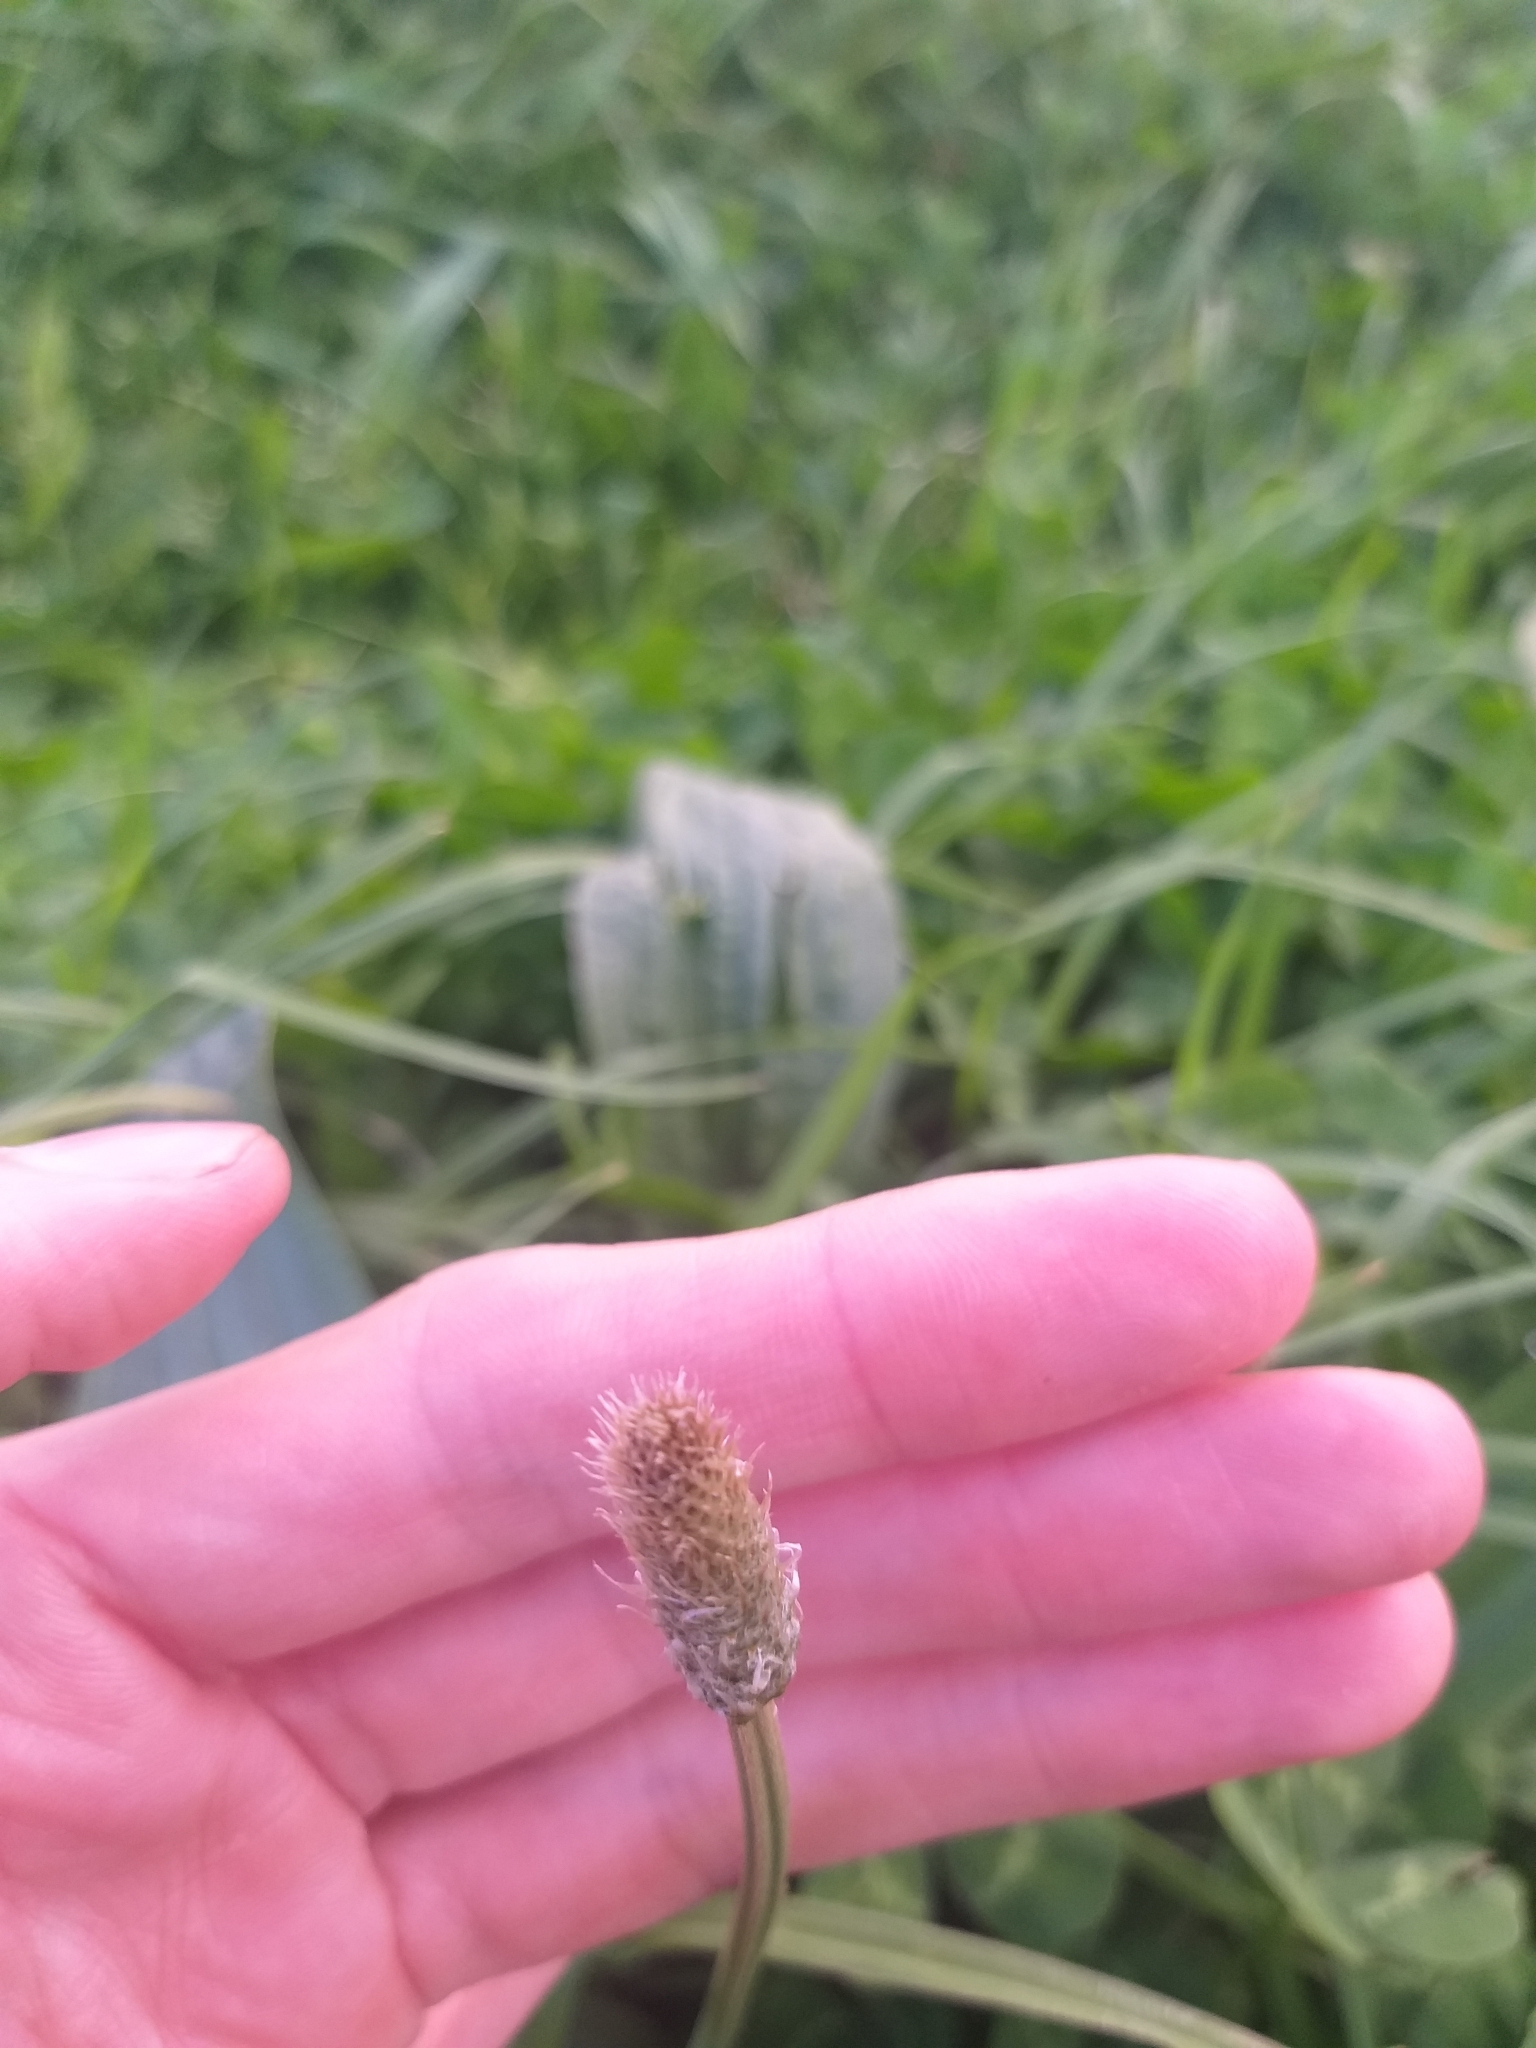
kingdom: Plantae
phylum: Tracheophyta
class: Magnoliopsida
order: Lamiales
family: Plantaginaceae
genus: Plantago
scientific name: Plantago lanceolata
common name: Ribwort plantain
